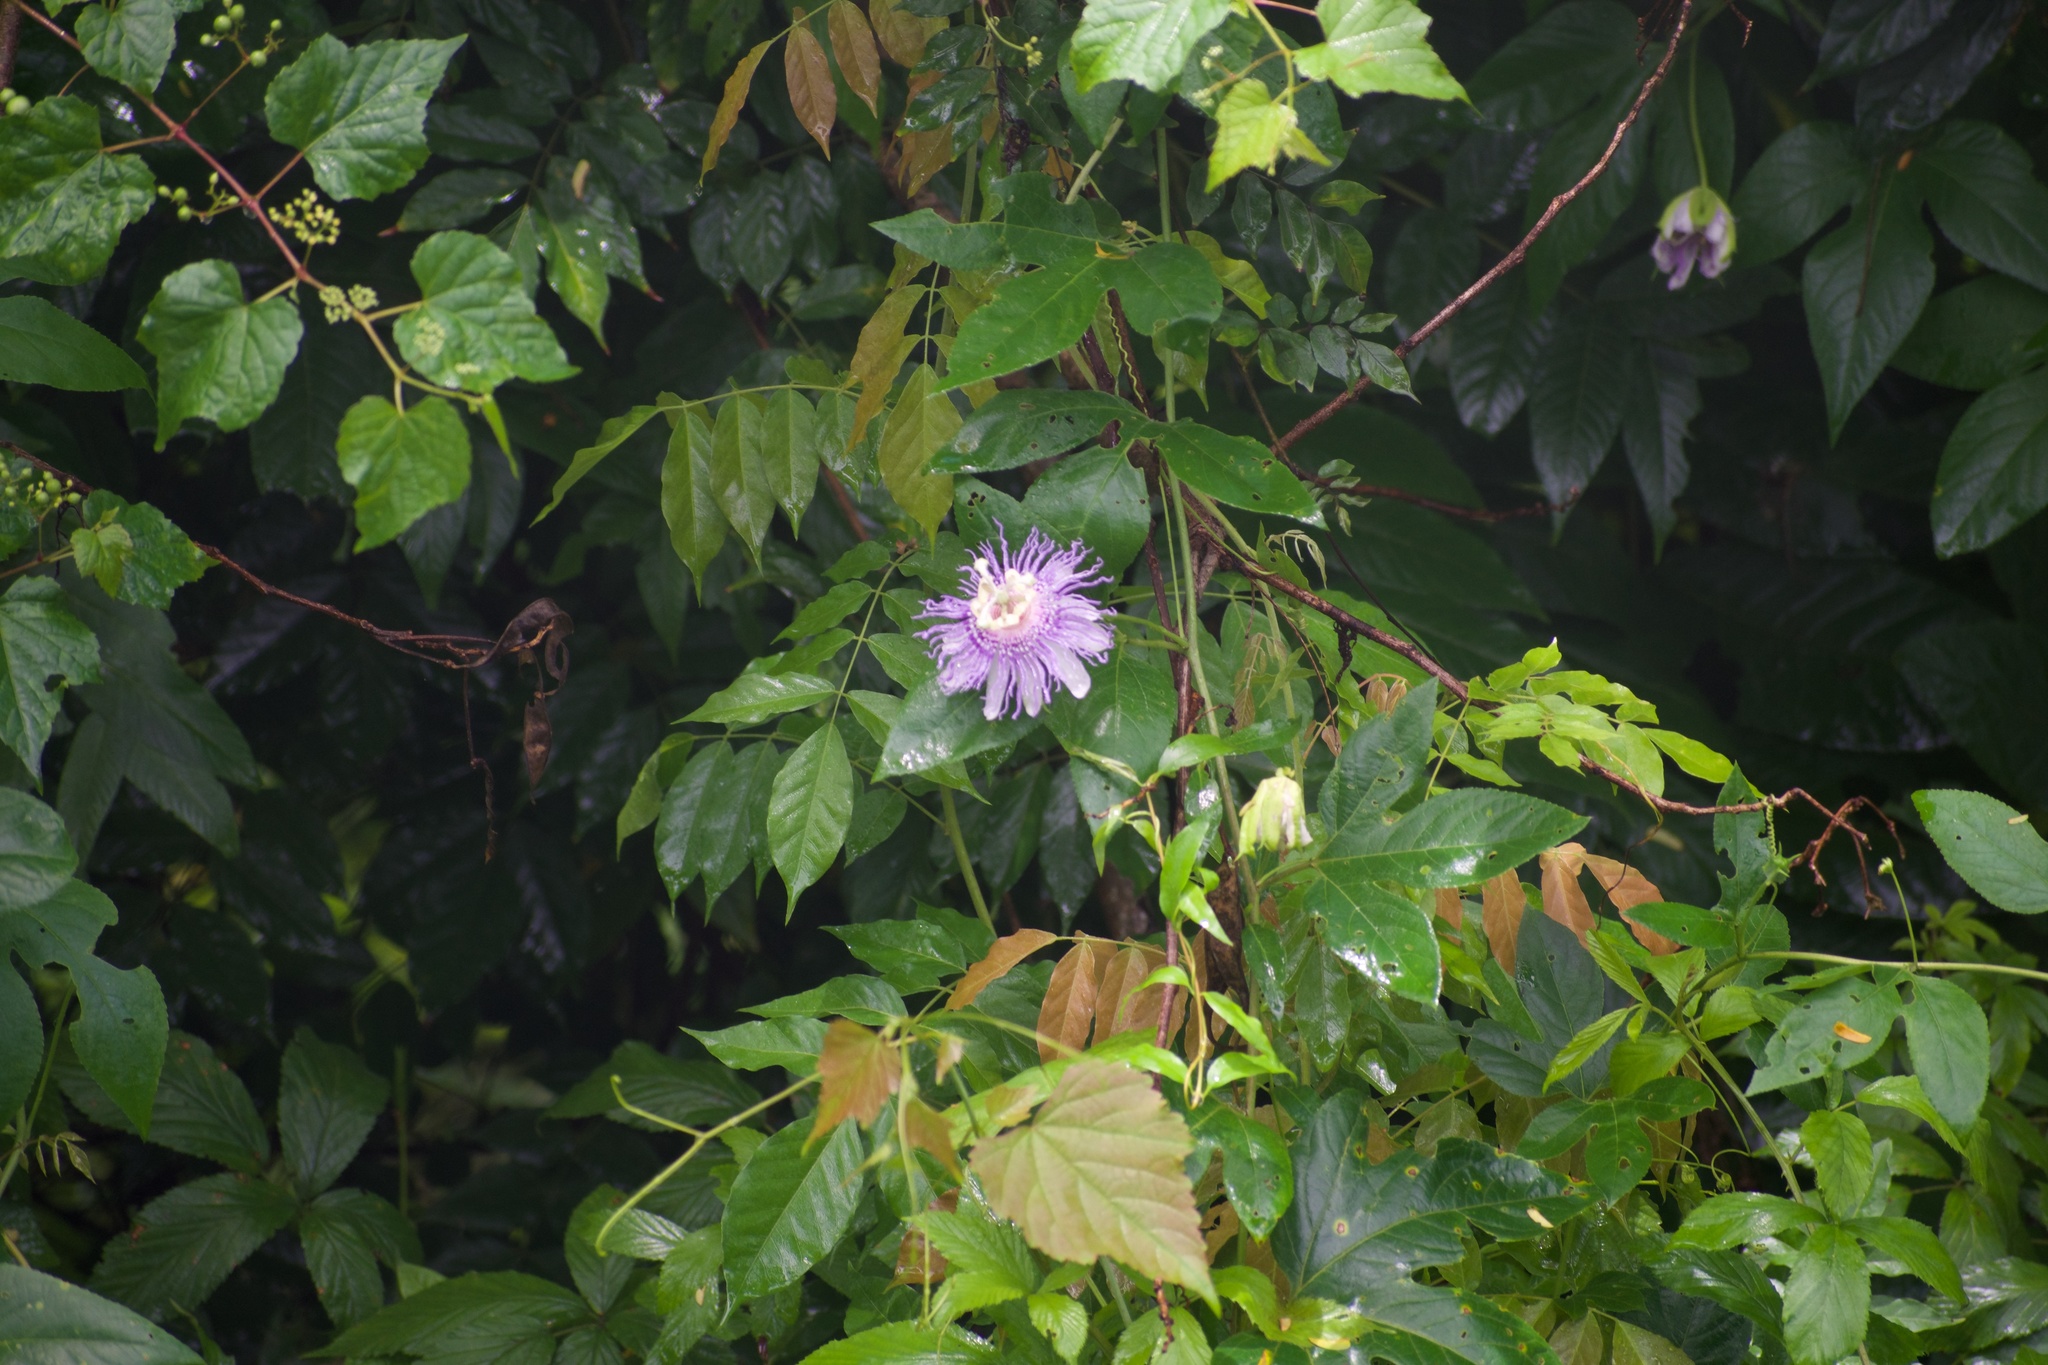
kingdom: Plantae
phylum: Tracheophyta
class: Magnoliopsida
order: Malpighiales
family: Passifloraceae
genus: Passiflora
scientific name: Passiflora incarnata
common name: Apricot-vine
